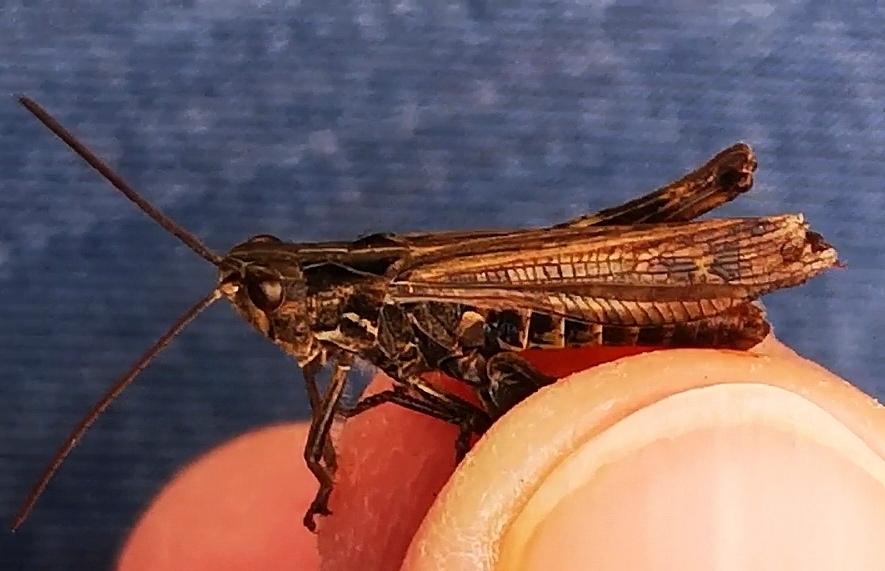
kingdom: Animalia
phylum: Arthropoda
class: Insecta
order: Orthoptera
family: Acrididae
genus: Chorthippus
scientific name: Chorthippus biguttulus
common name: Bow-winged grasshopper
